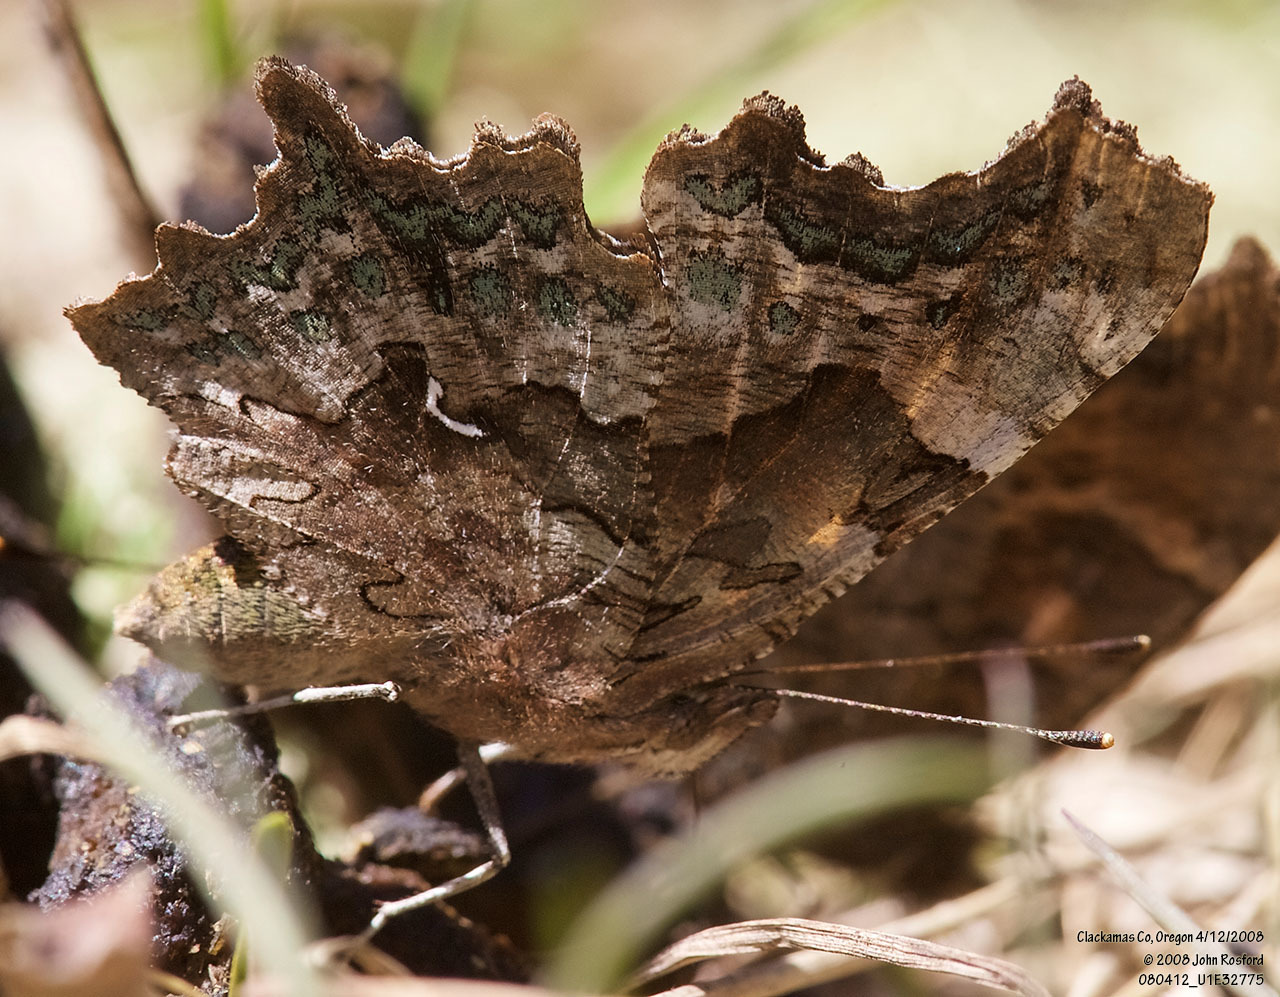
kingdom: Animalia
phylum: Arthropoda
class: Insecta
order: Lepidoptera
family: Nymphalidae
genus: Polygonia
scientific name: Polygonia faunus
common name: Green comma
